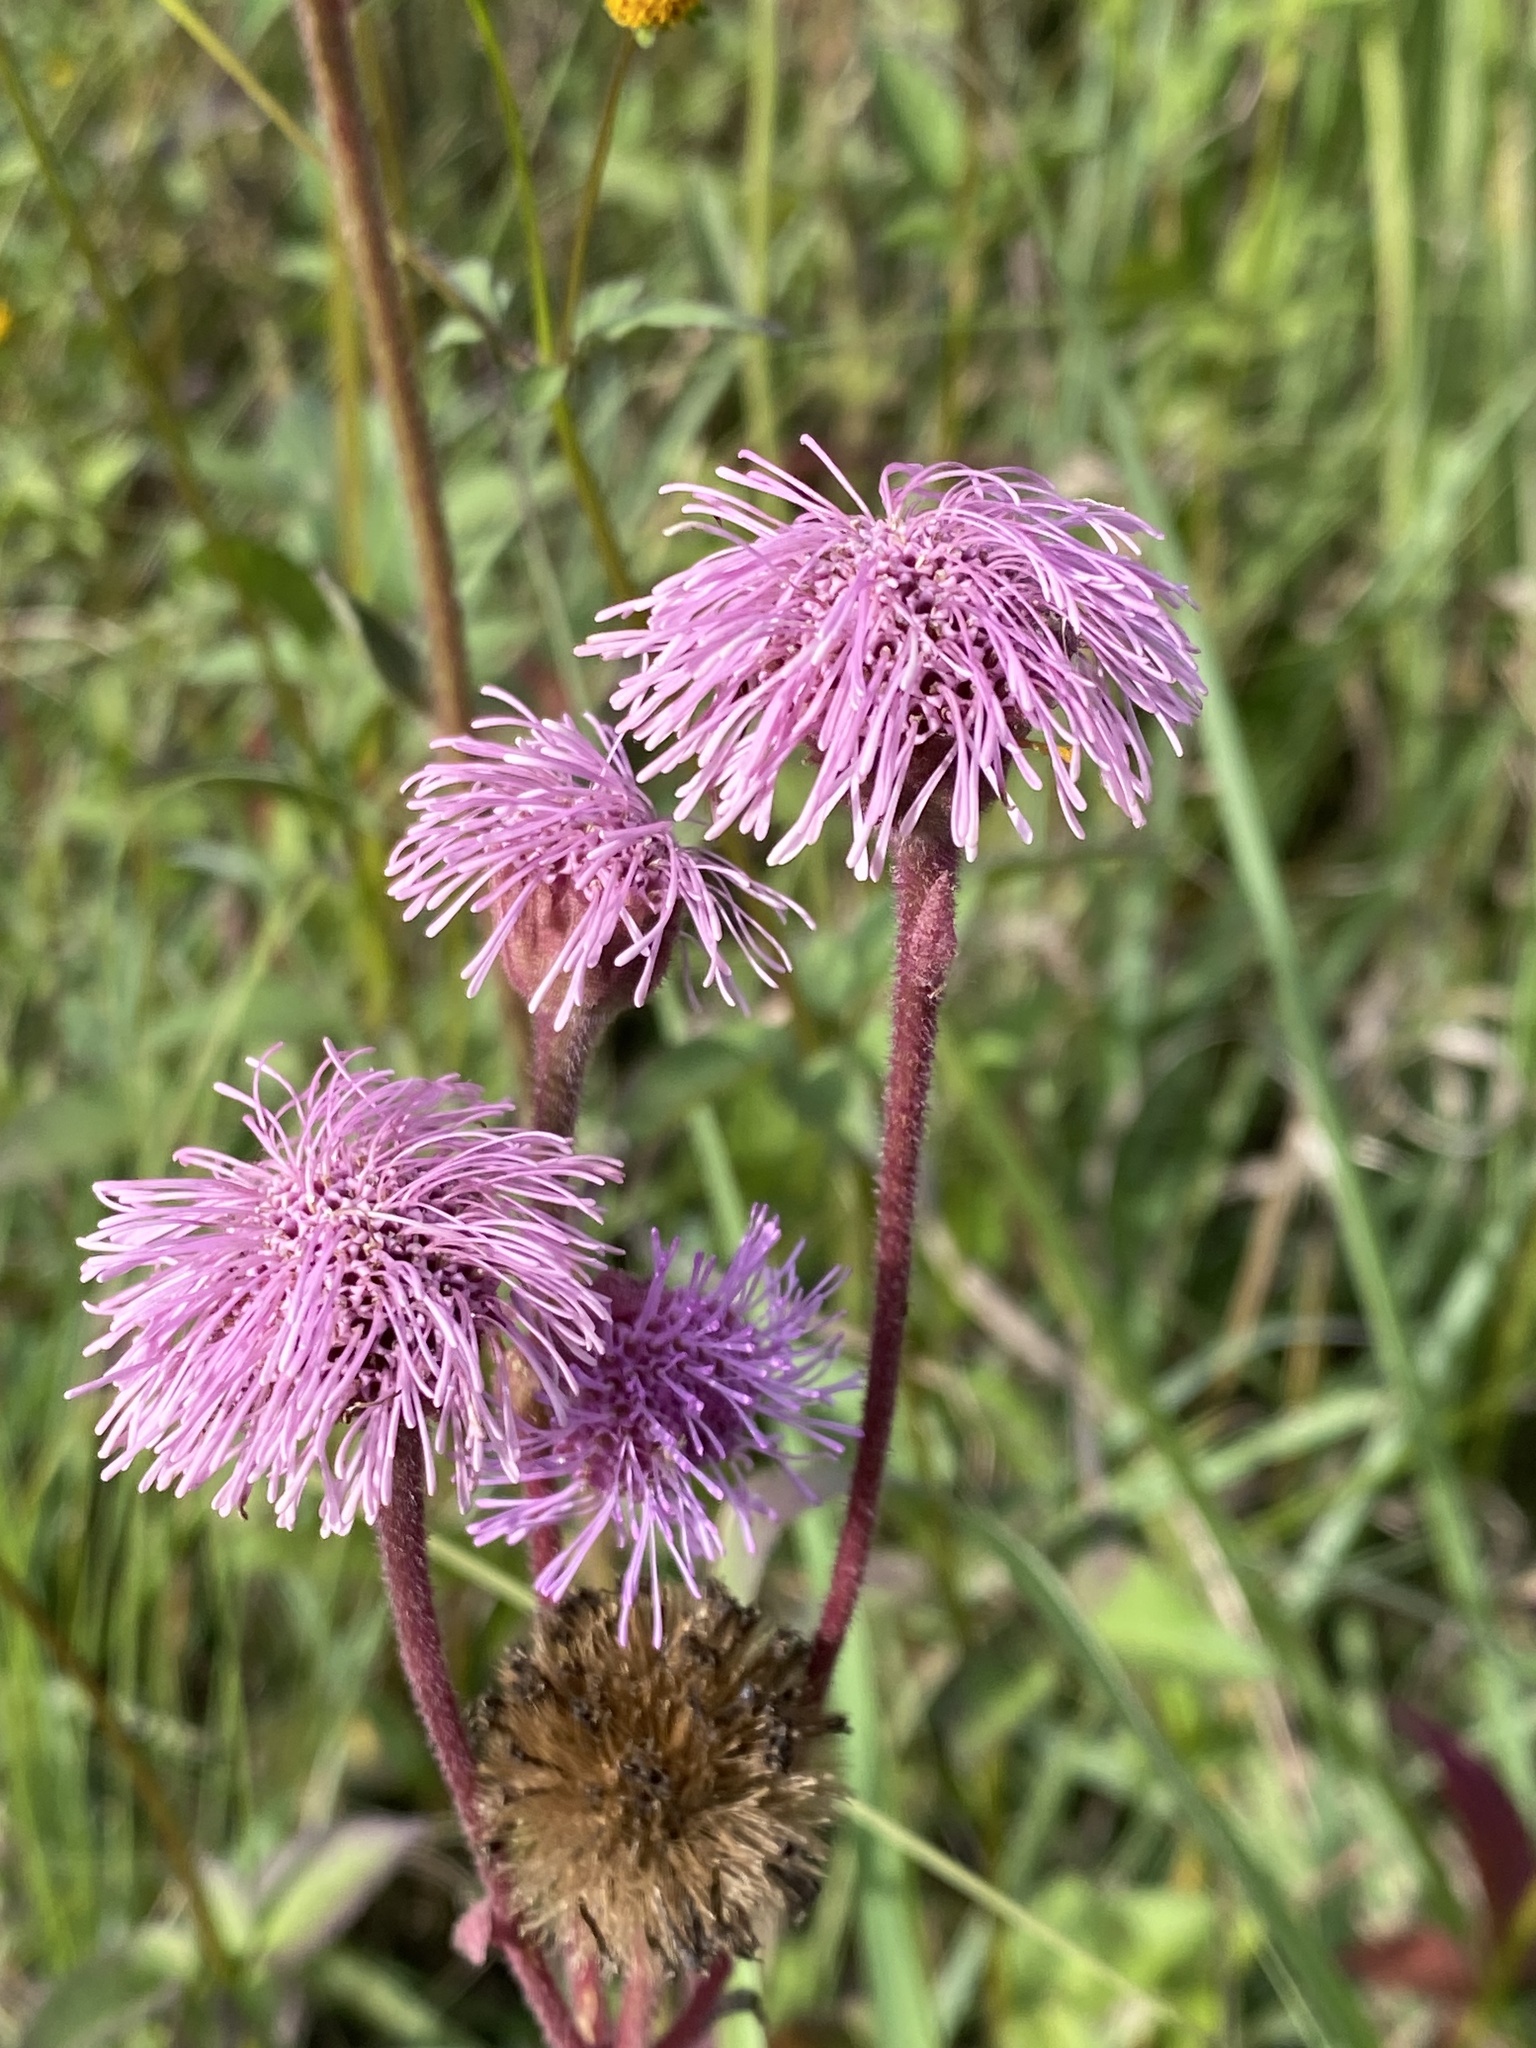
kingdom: Plantae
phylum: Tracheophyta
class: Magnoliopsida
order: Asterales
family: Asteraceae
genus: Campuloclinium
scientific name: Campuloclinium macrocephalum
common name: Pompomweed
